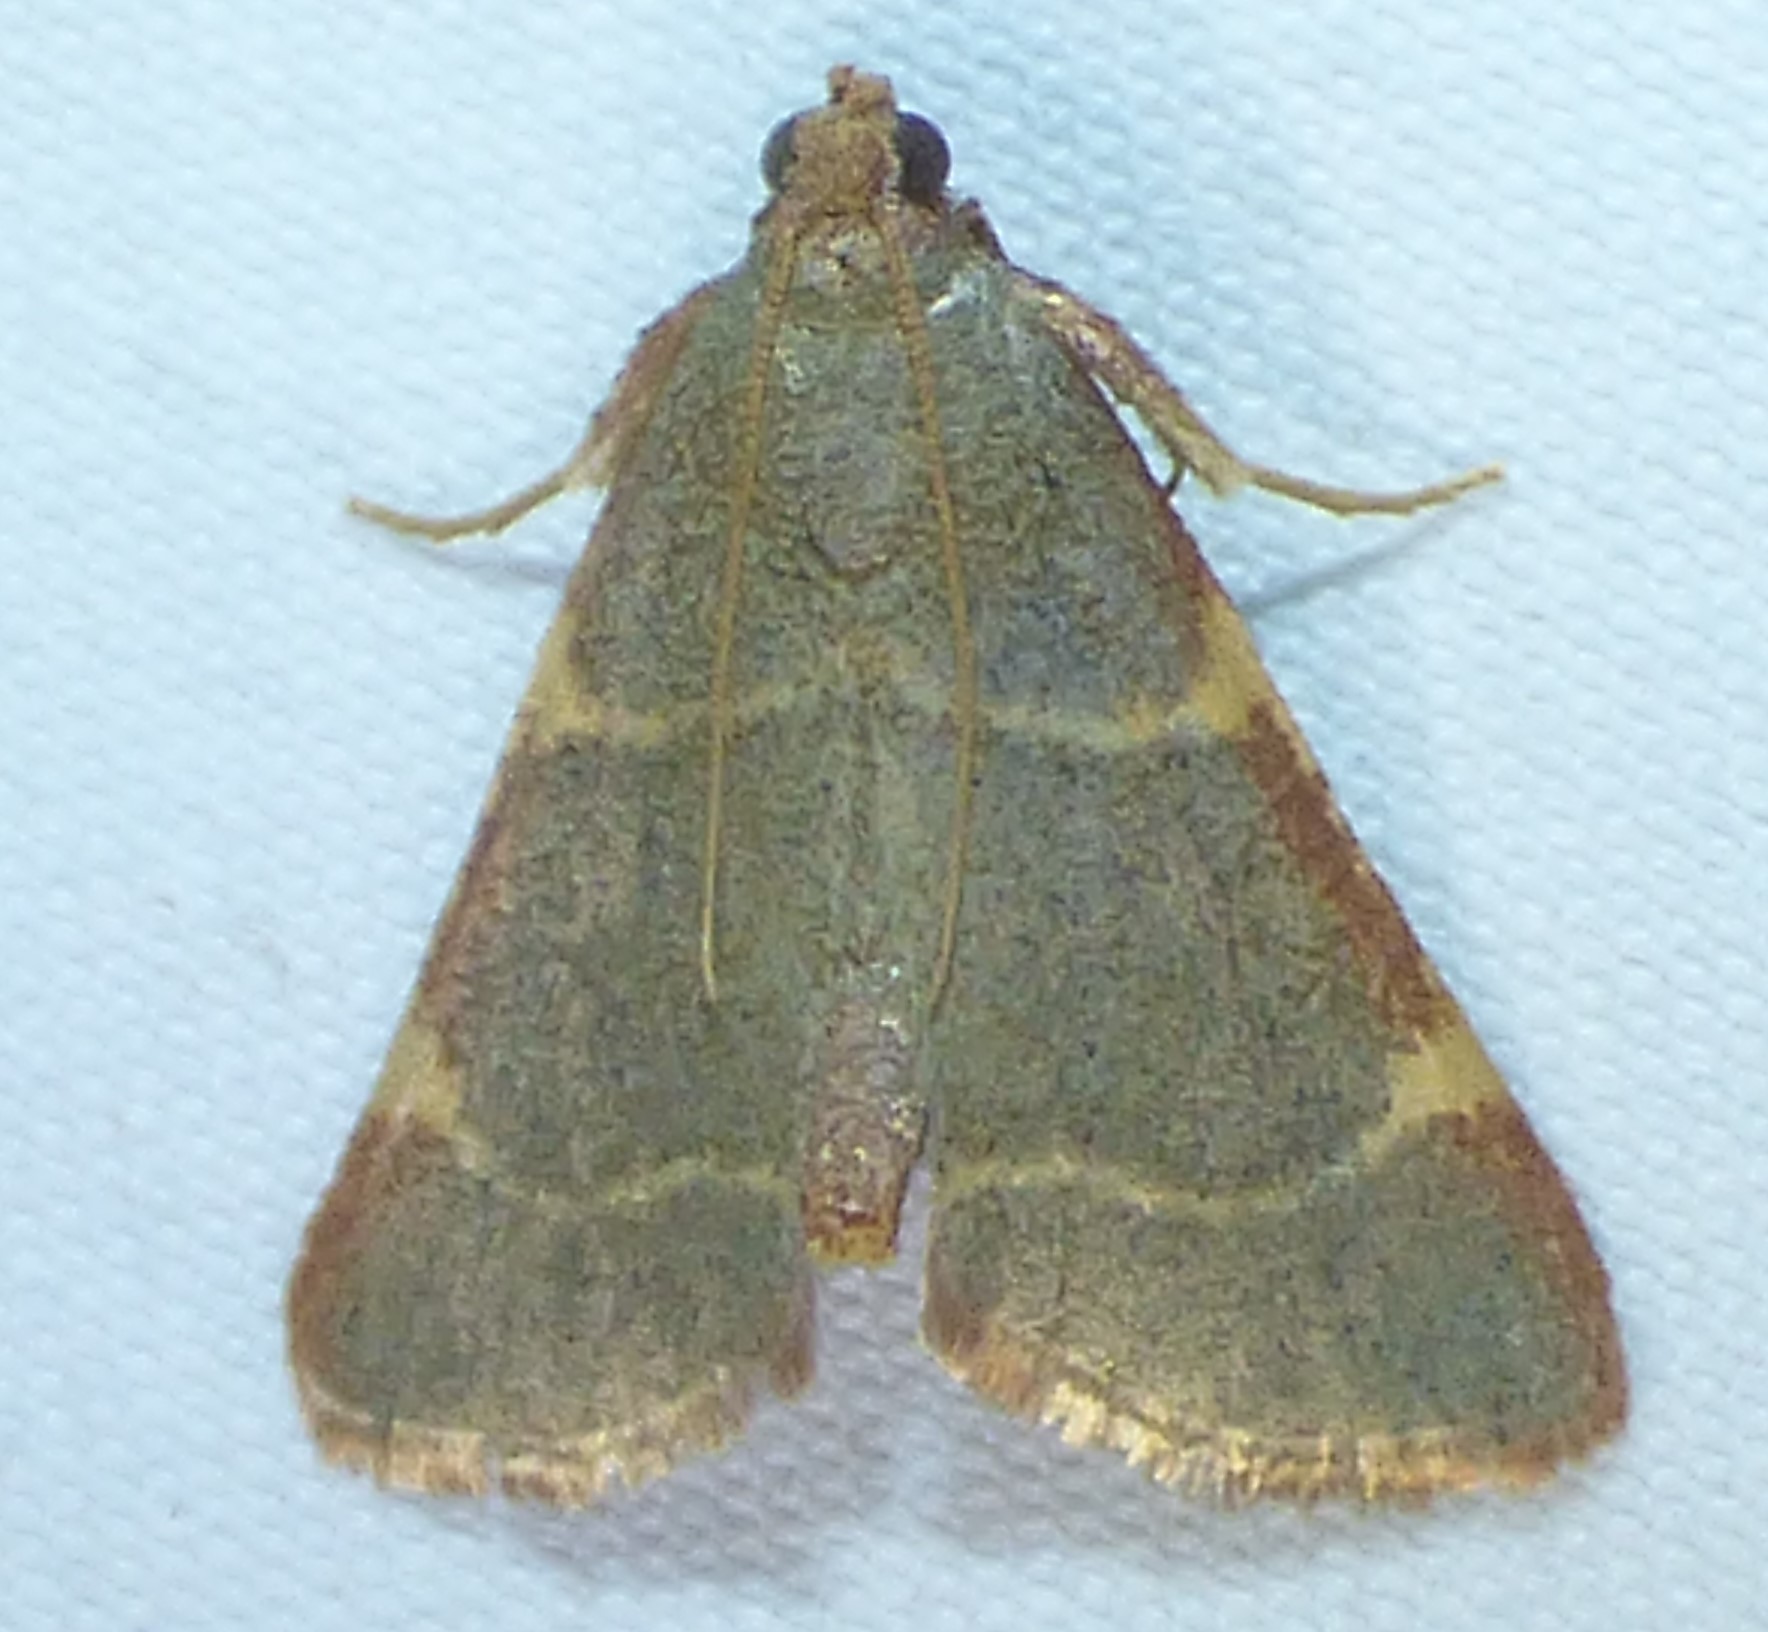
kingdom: Animalia
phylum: Arthropoda
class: Insecta
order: Lepidoptera
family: Pyralidae
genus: Hypsopygia
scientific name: Hypsopygia binodulalis
